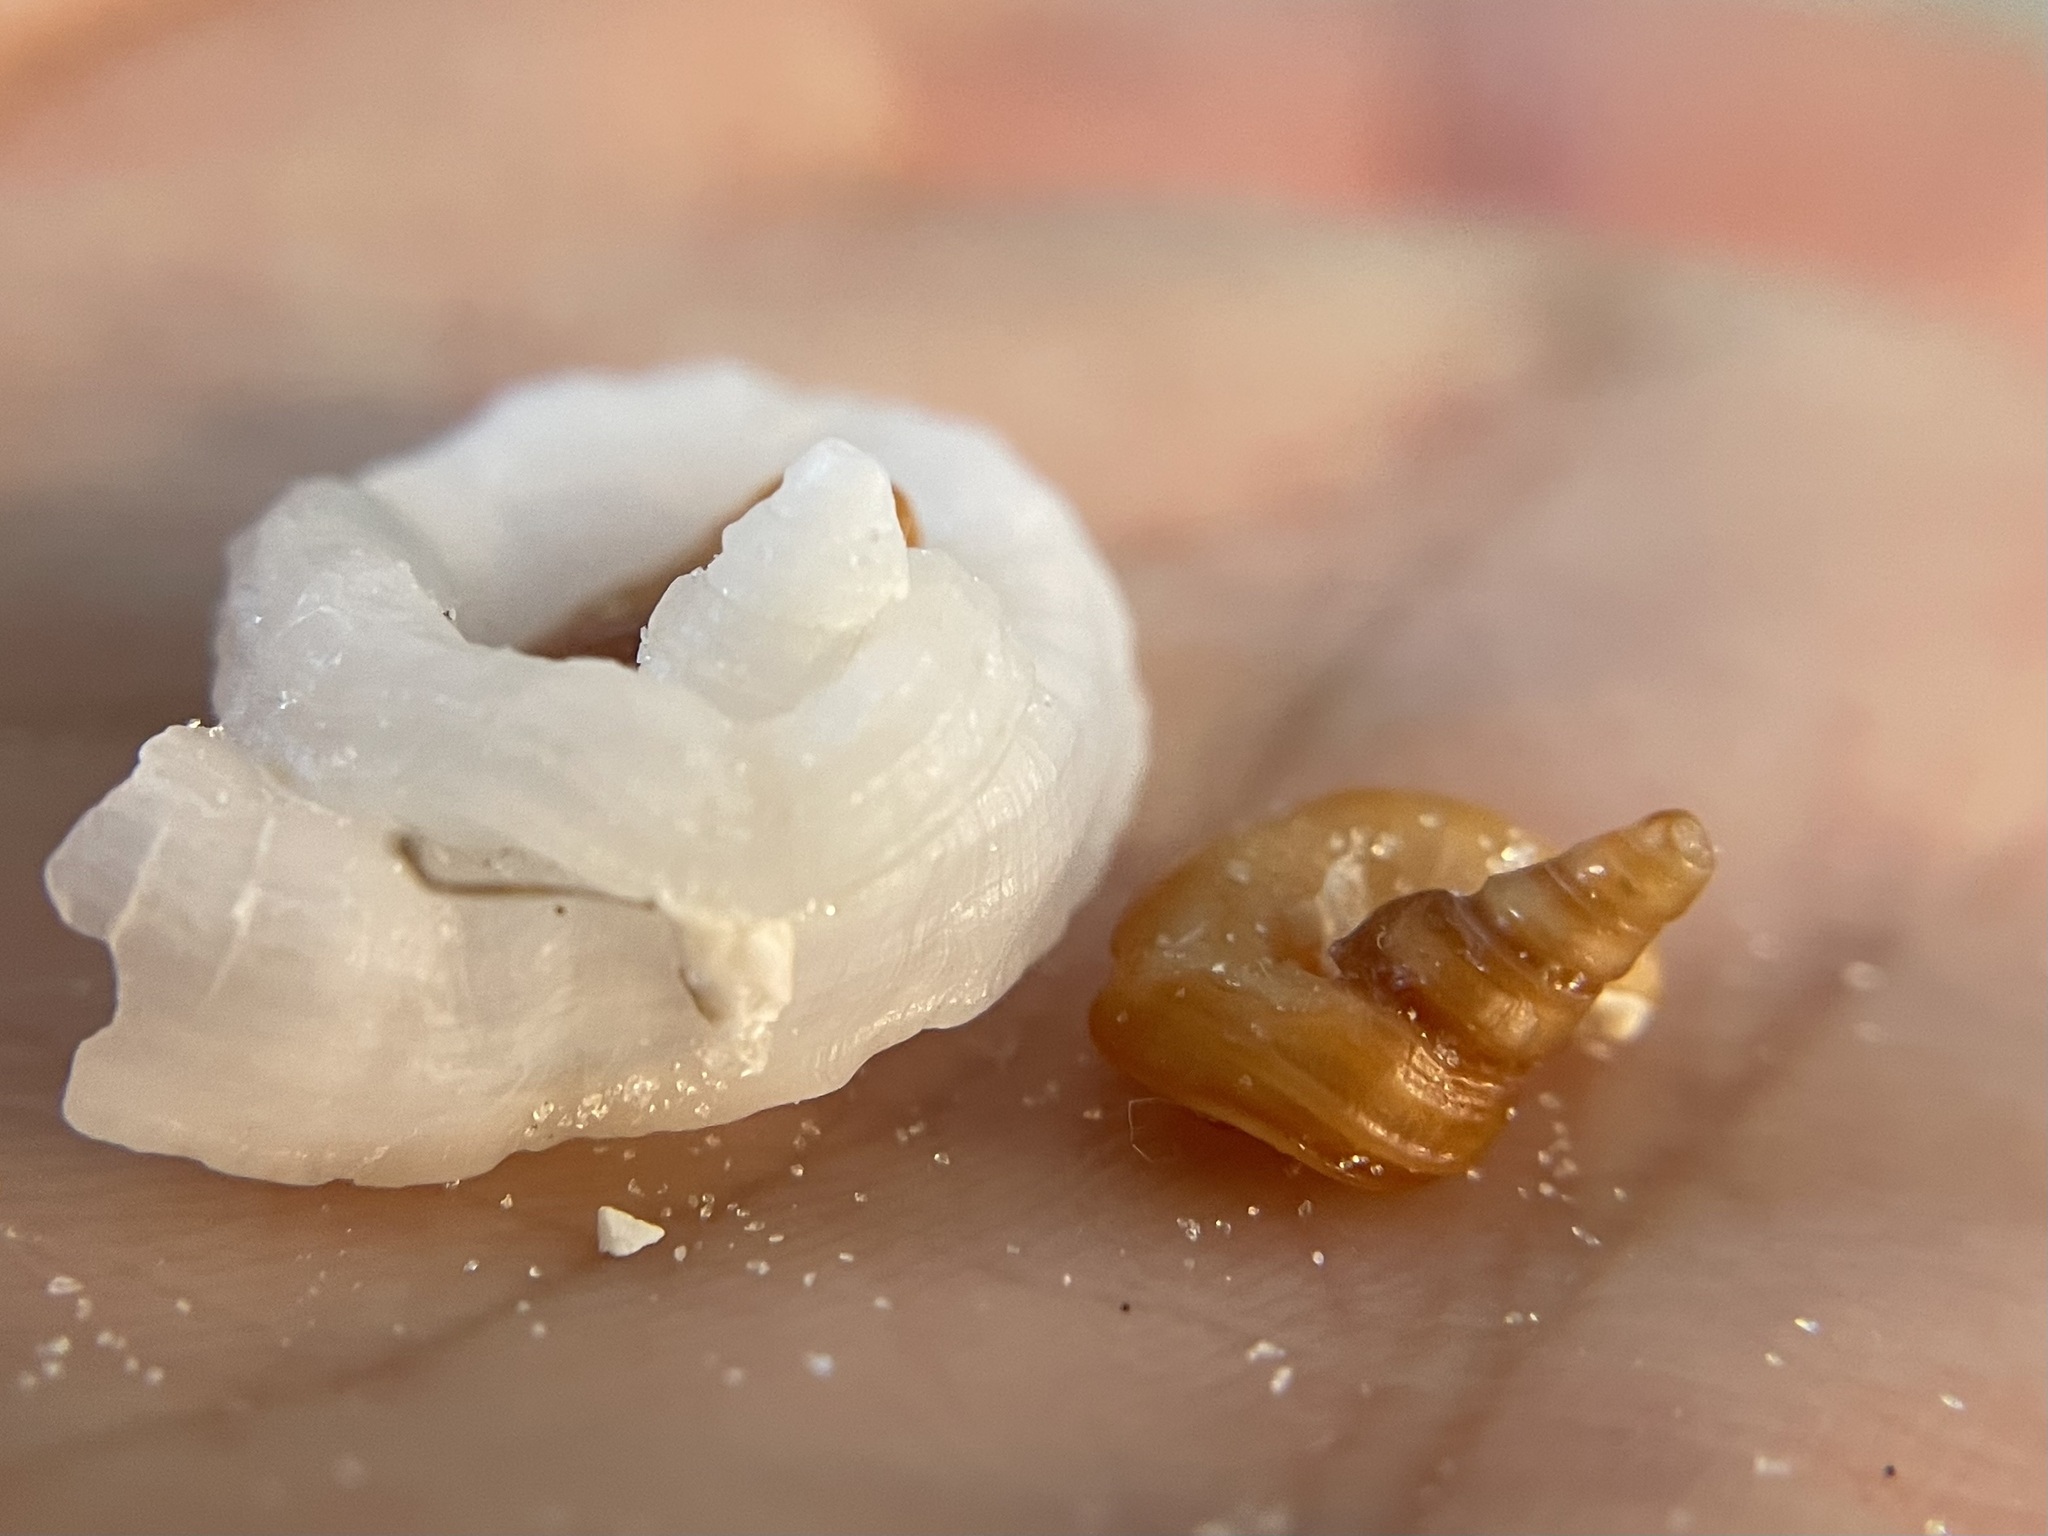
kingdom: Animalia
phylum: Mollusca
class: Gastropoda
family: Turritellidae
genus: Vermicularia
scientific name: Vermicularia lumbricalis
